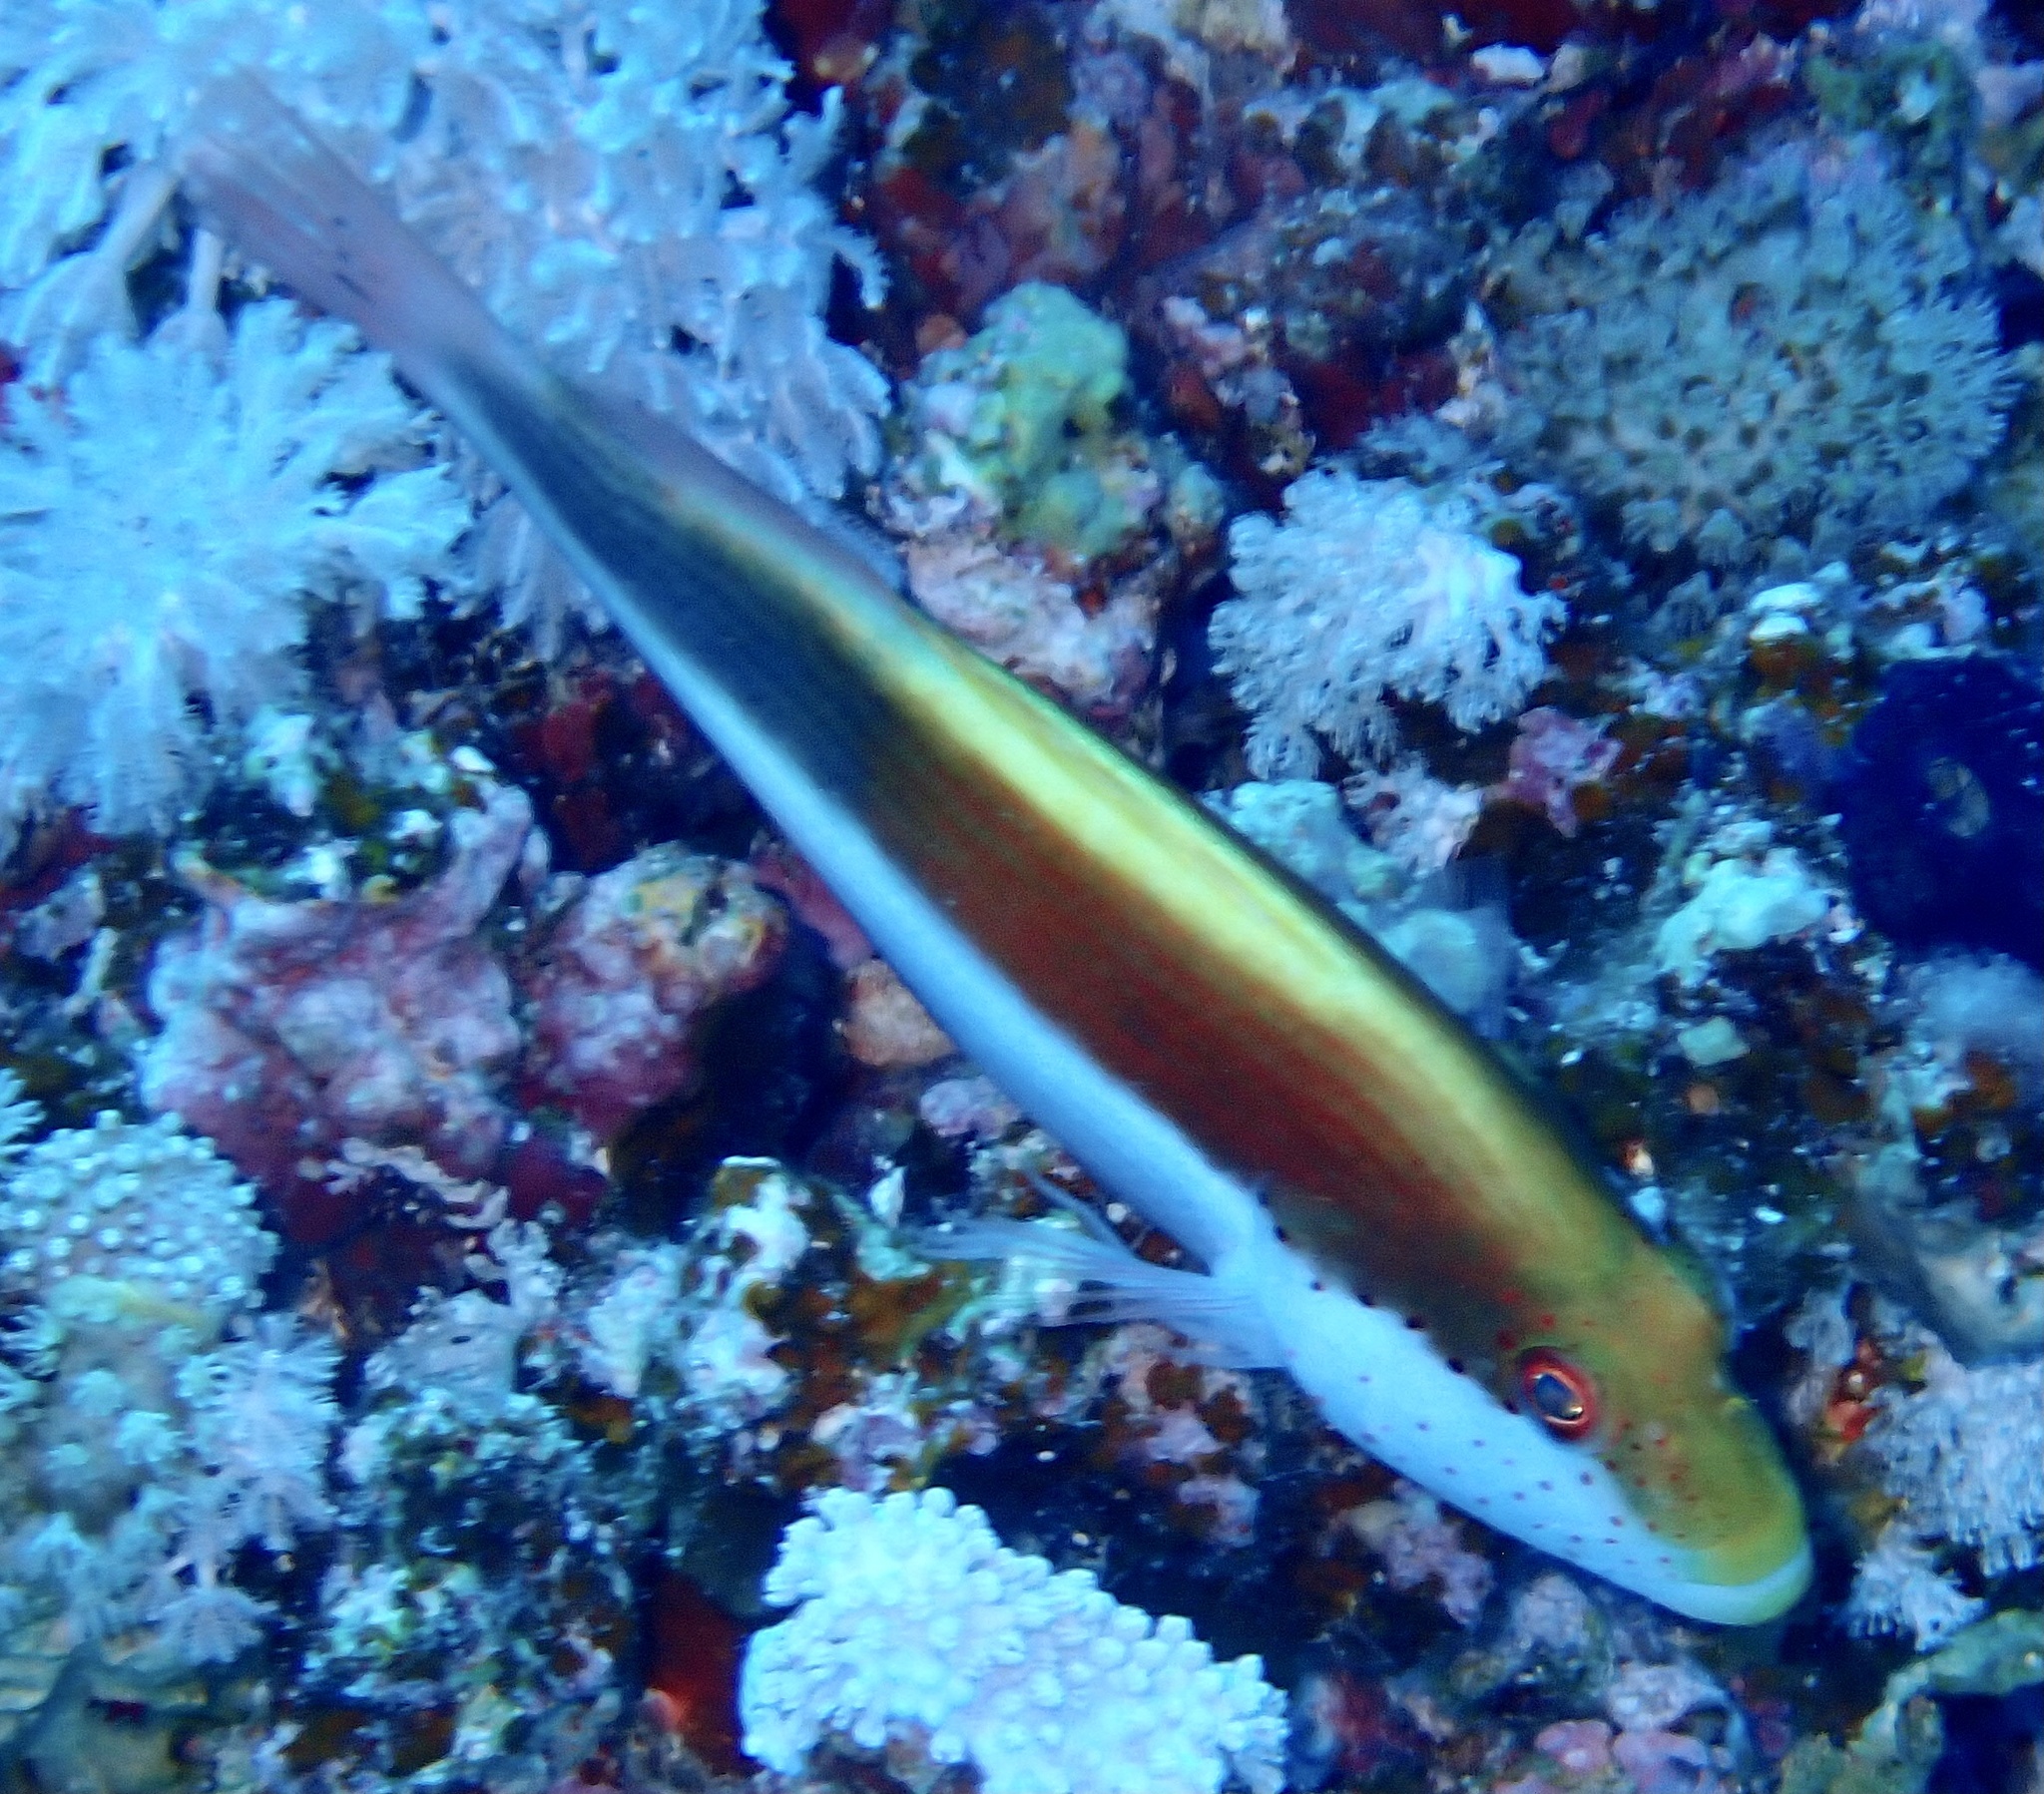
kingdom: Animalia
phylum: Chordata
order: Perciformes
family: Cirrhitidae
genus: Paracirrhites
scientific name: Paracirrhites forsteri
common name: Freckled hawkfish
